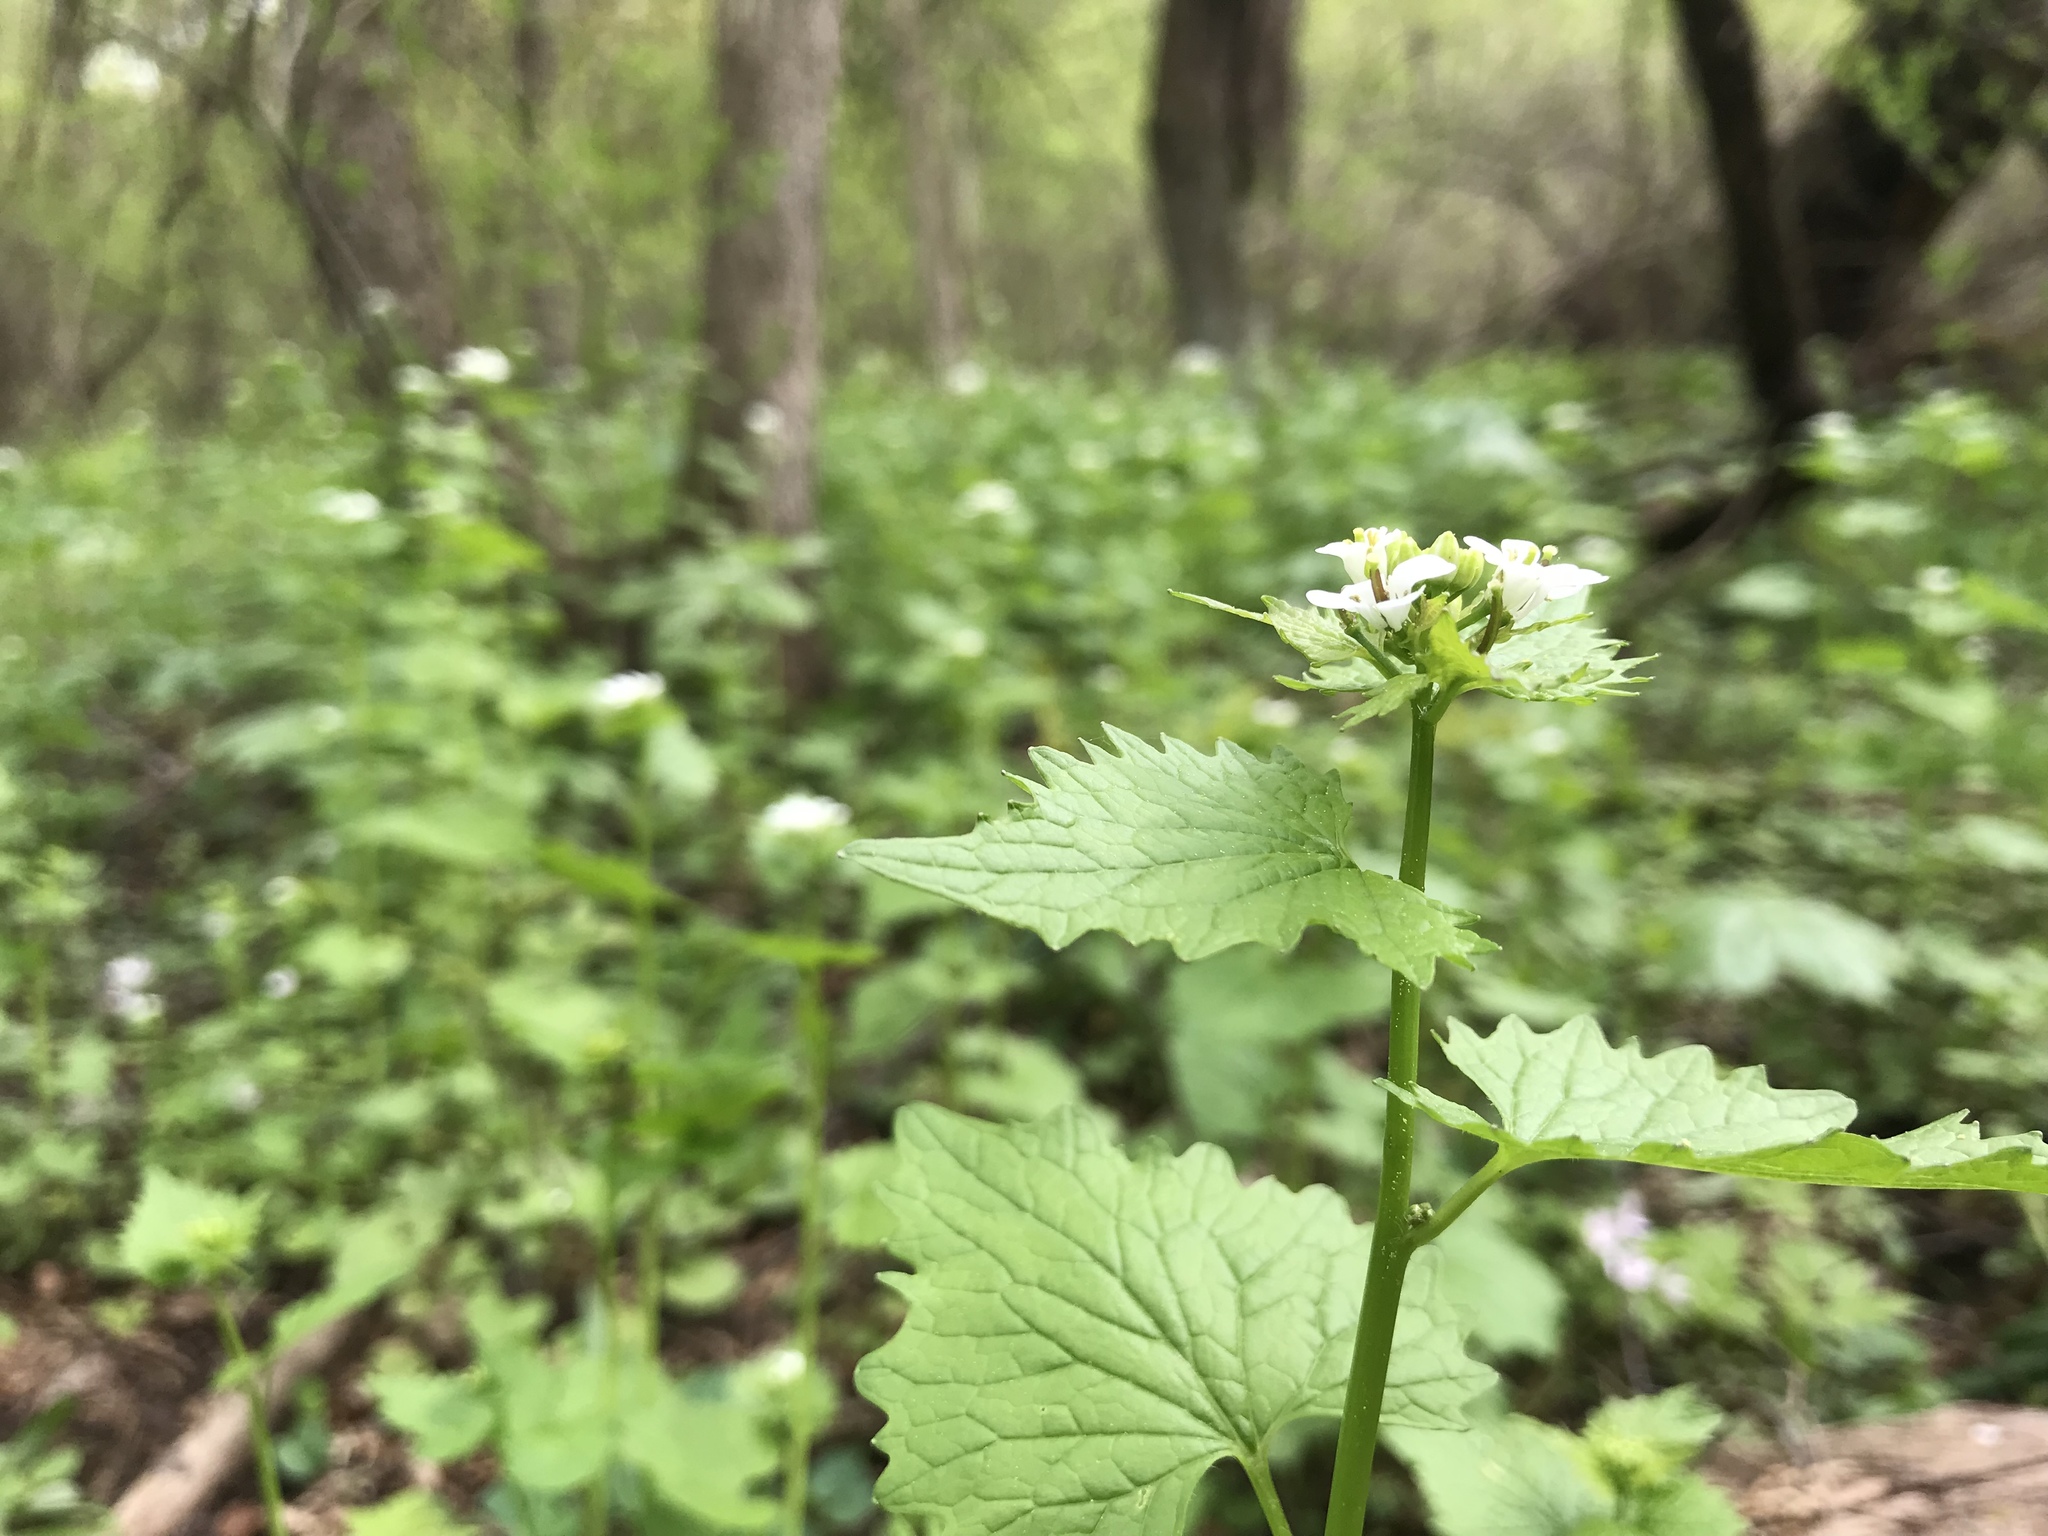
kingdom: Plantae
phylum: Tracheophyta
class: Magnoliopsida
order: Brassicales
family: Brassicaceae
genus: Alliaria
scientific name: Alliaria petiolata
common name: Garlic mustard
